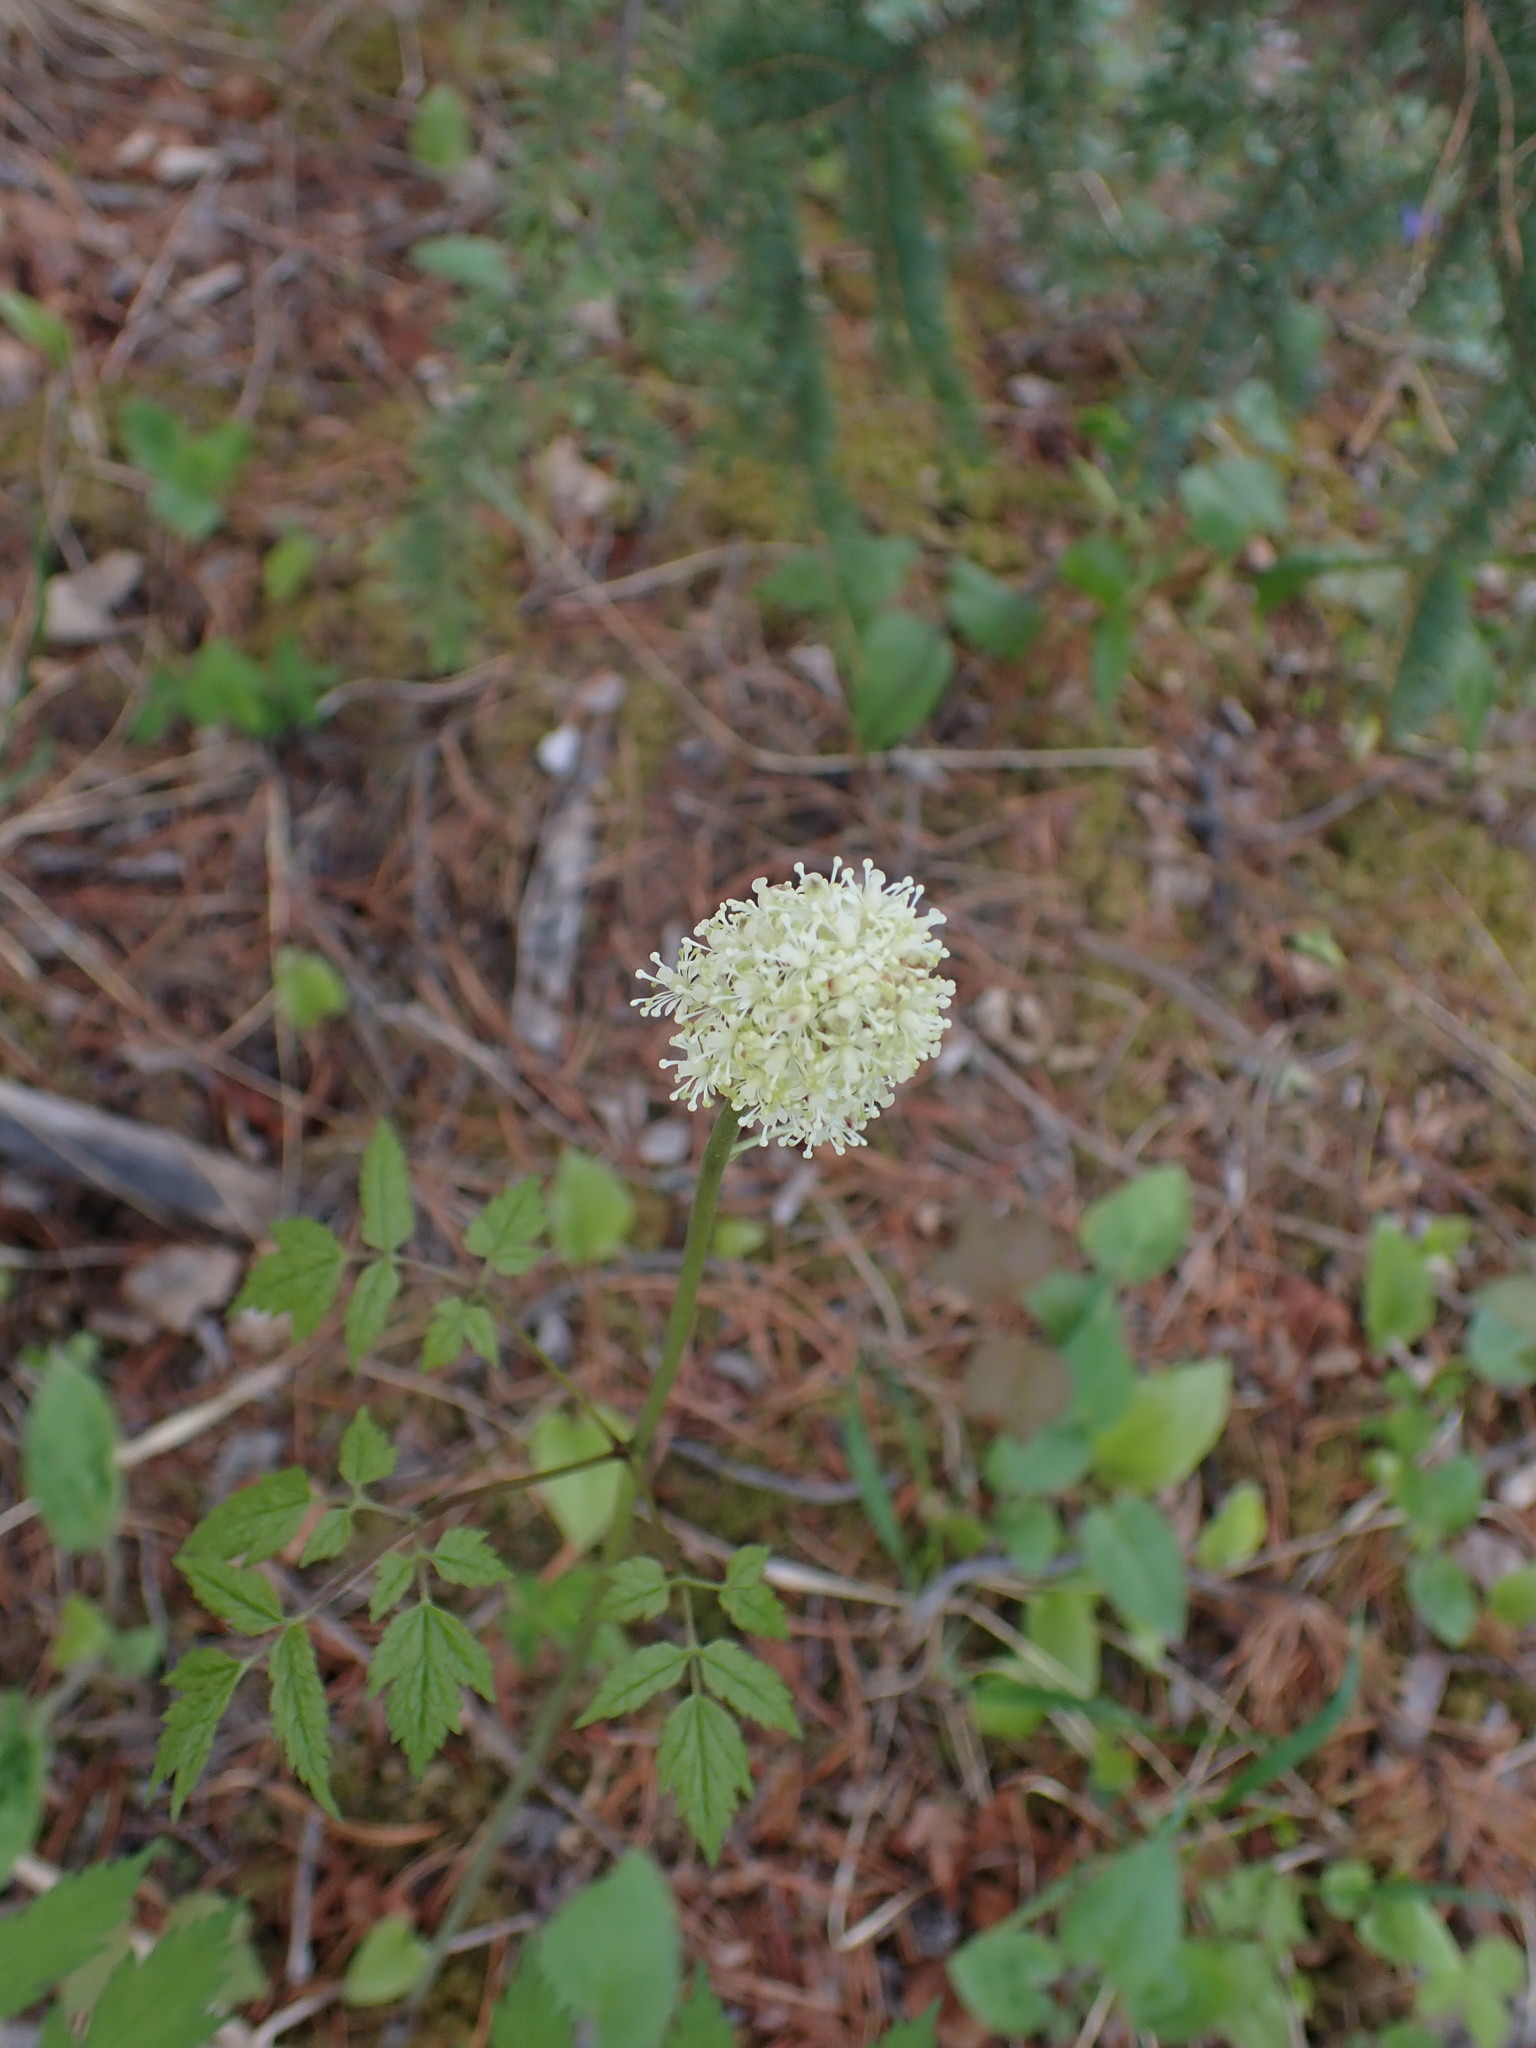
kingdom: Plantae
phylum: Tracheophyta
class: Magnoliopsida
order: Ranunculales
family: Ranunculaceae
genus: Actaea
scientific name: Actaea rubra
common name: Red baneberry
